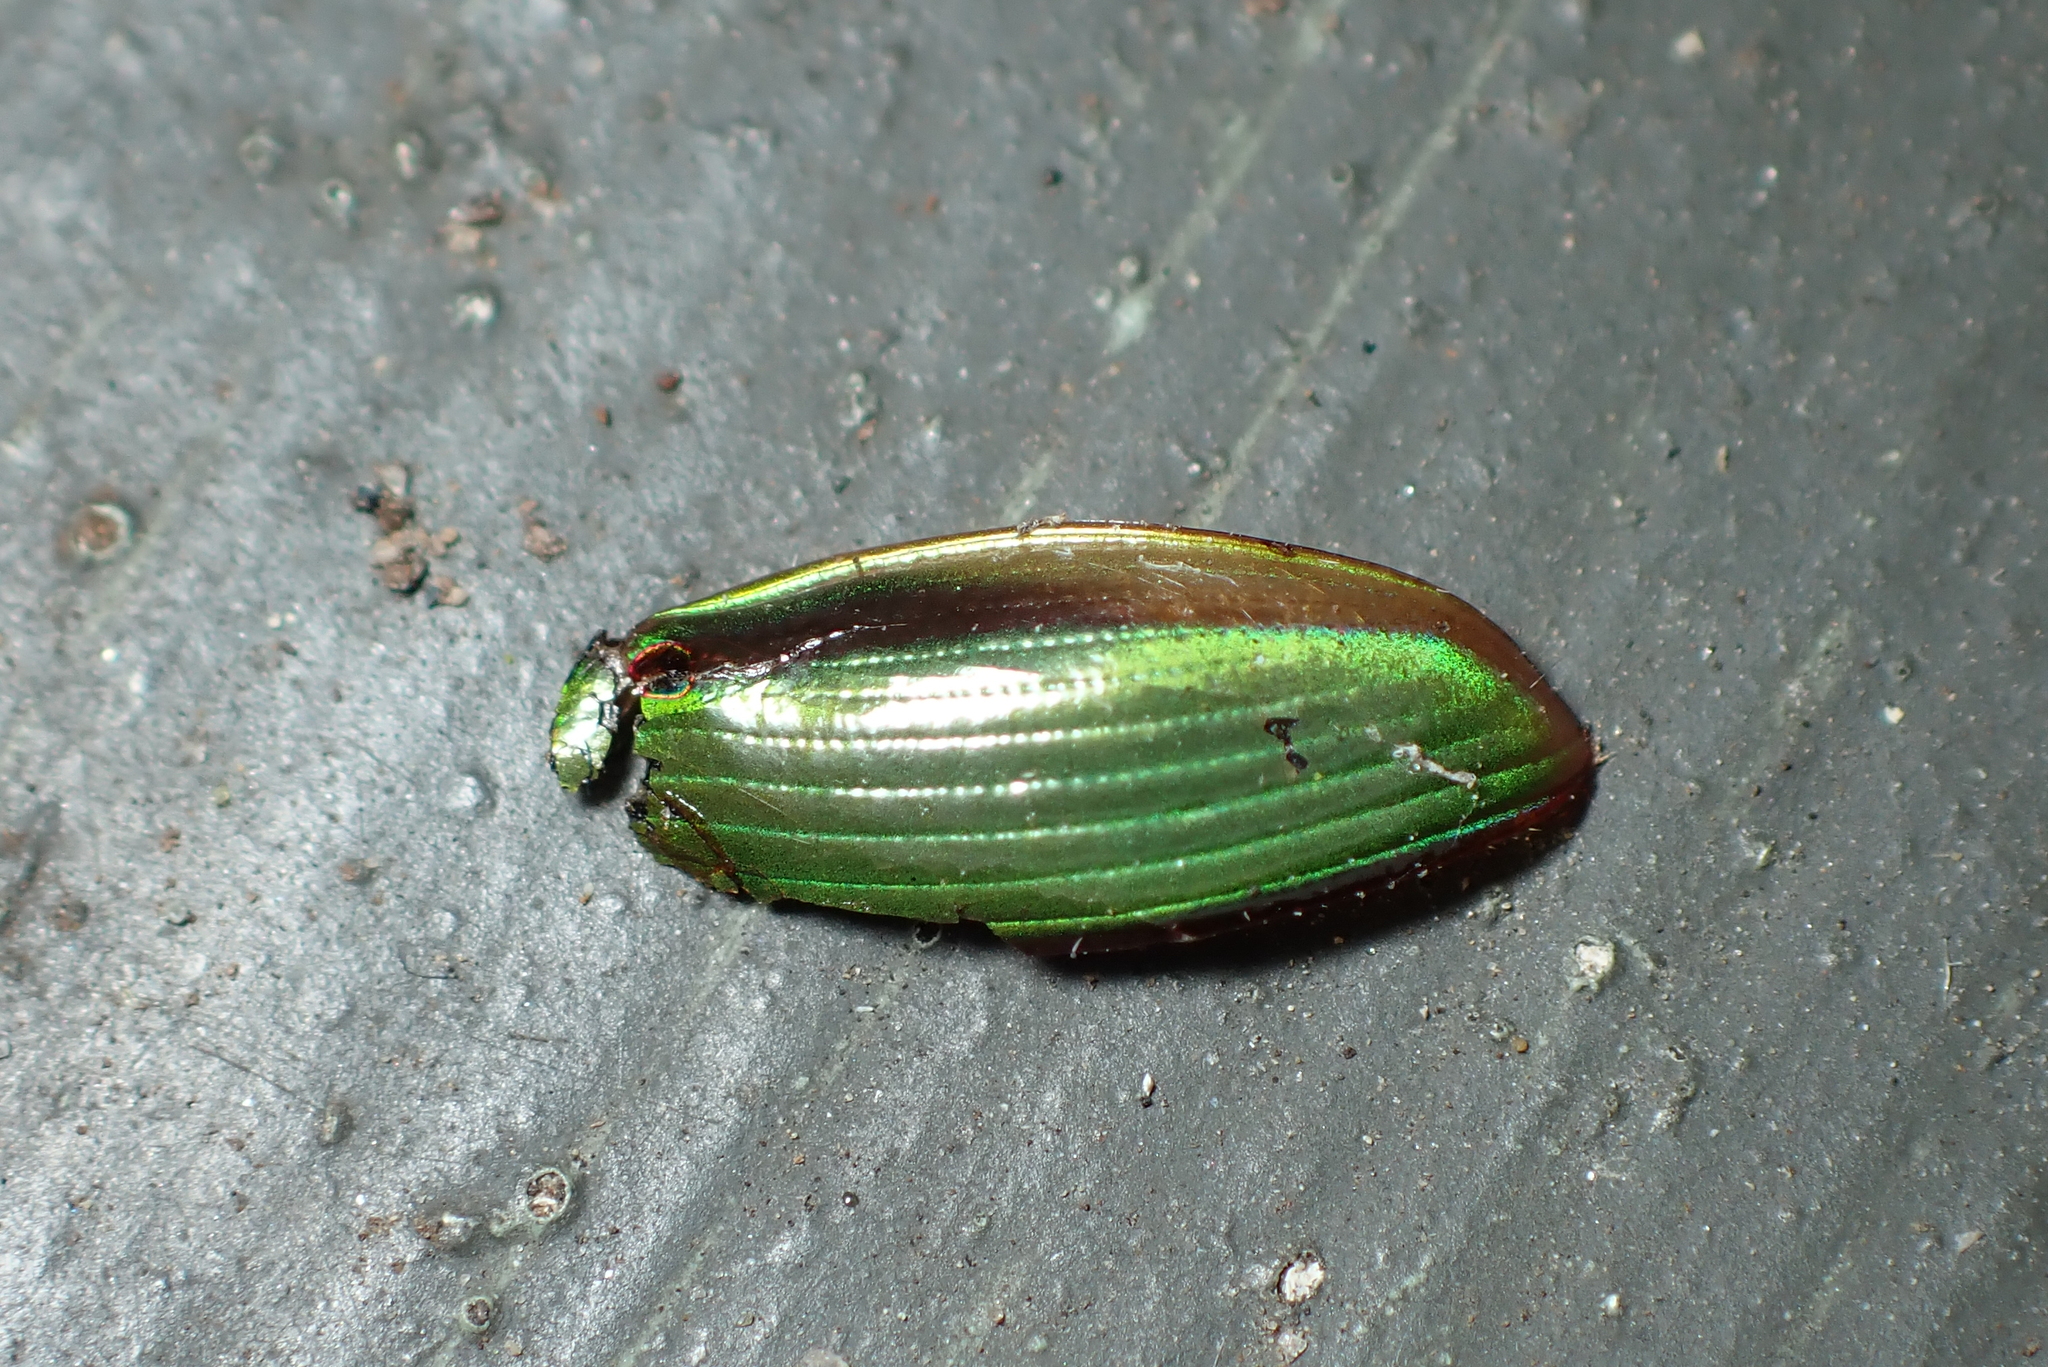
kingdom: Animalia
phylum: Arthropoda
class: Insecta
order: Coleoptera
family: Scarabaeidae
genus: Pyronota
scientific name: Pyronota festiva
